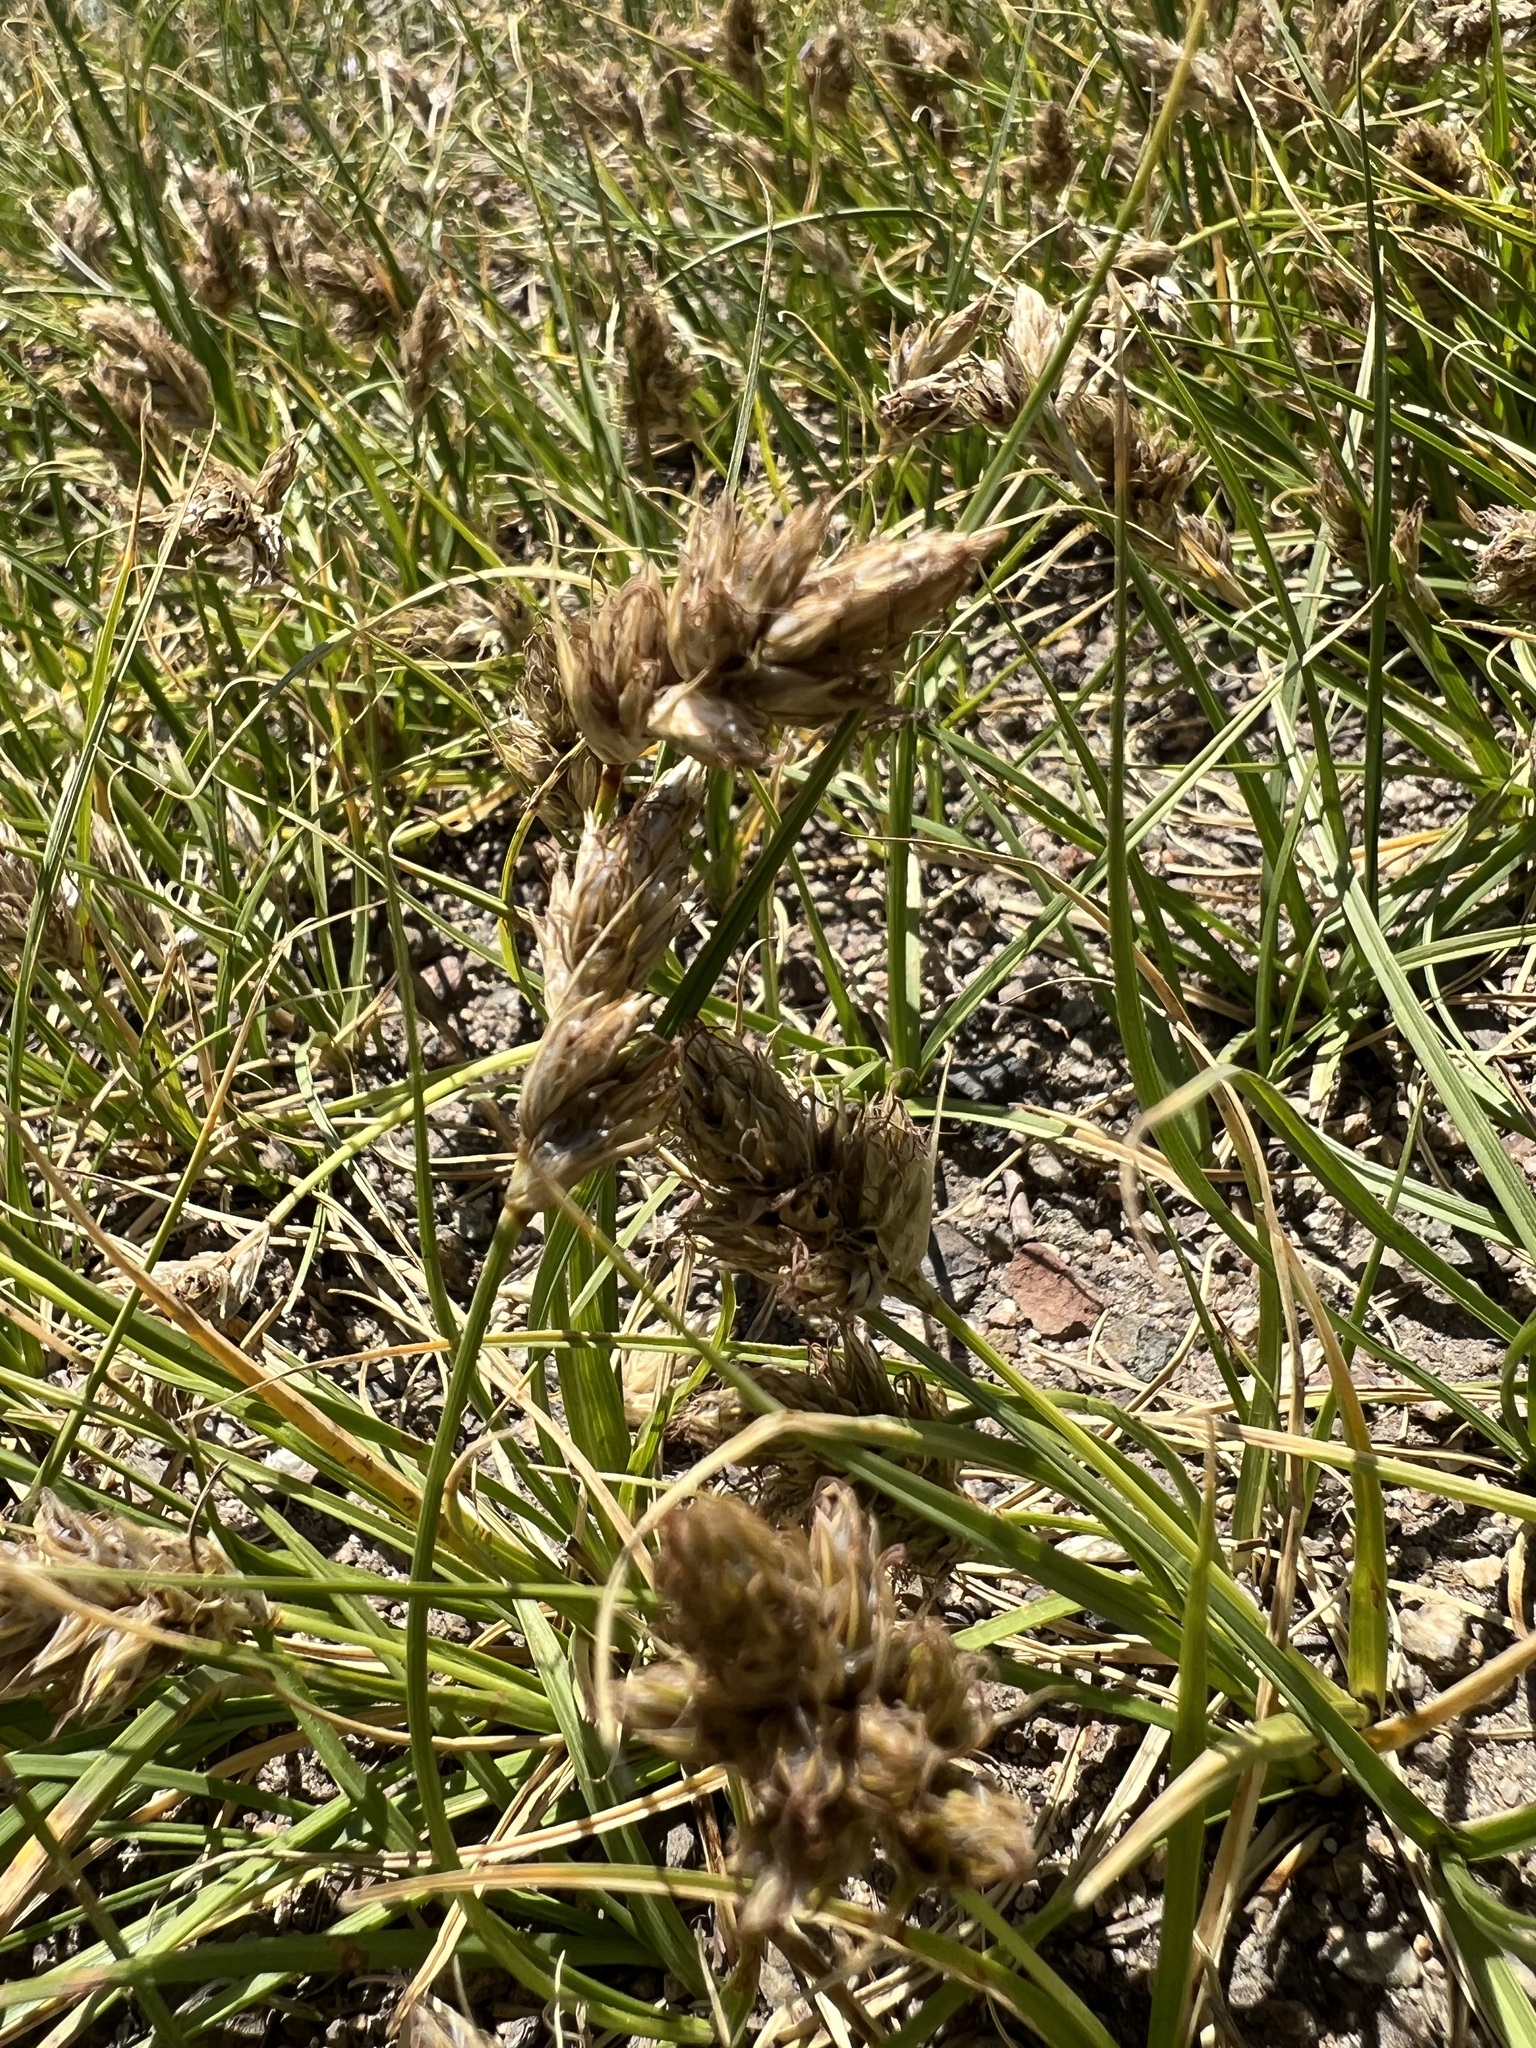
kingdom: Plantae
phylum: Tracheophyta
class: Liliopsida
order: Poales
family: Cyperaceae
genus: Carex
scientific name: Carex douglasii
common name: Douglas' sedge
